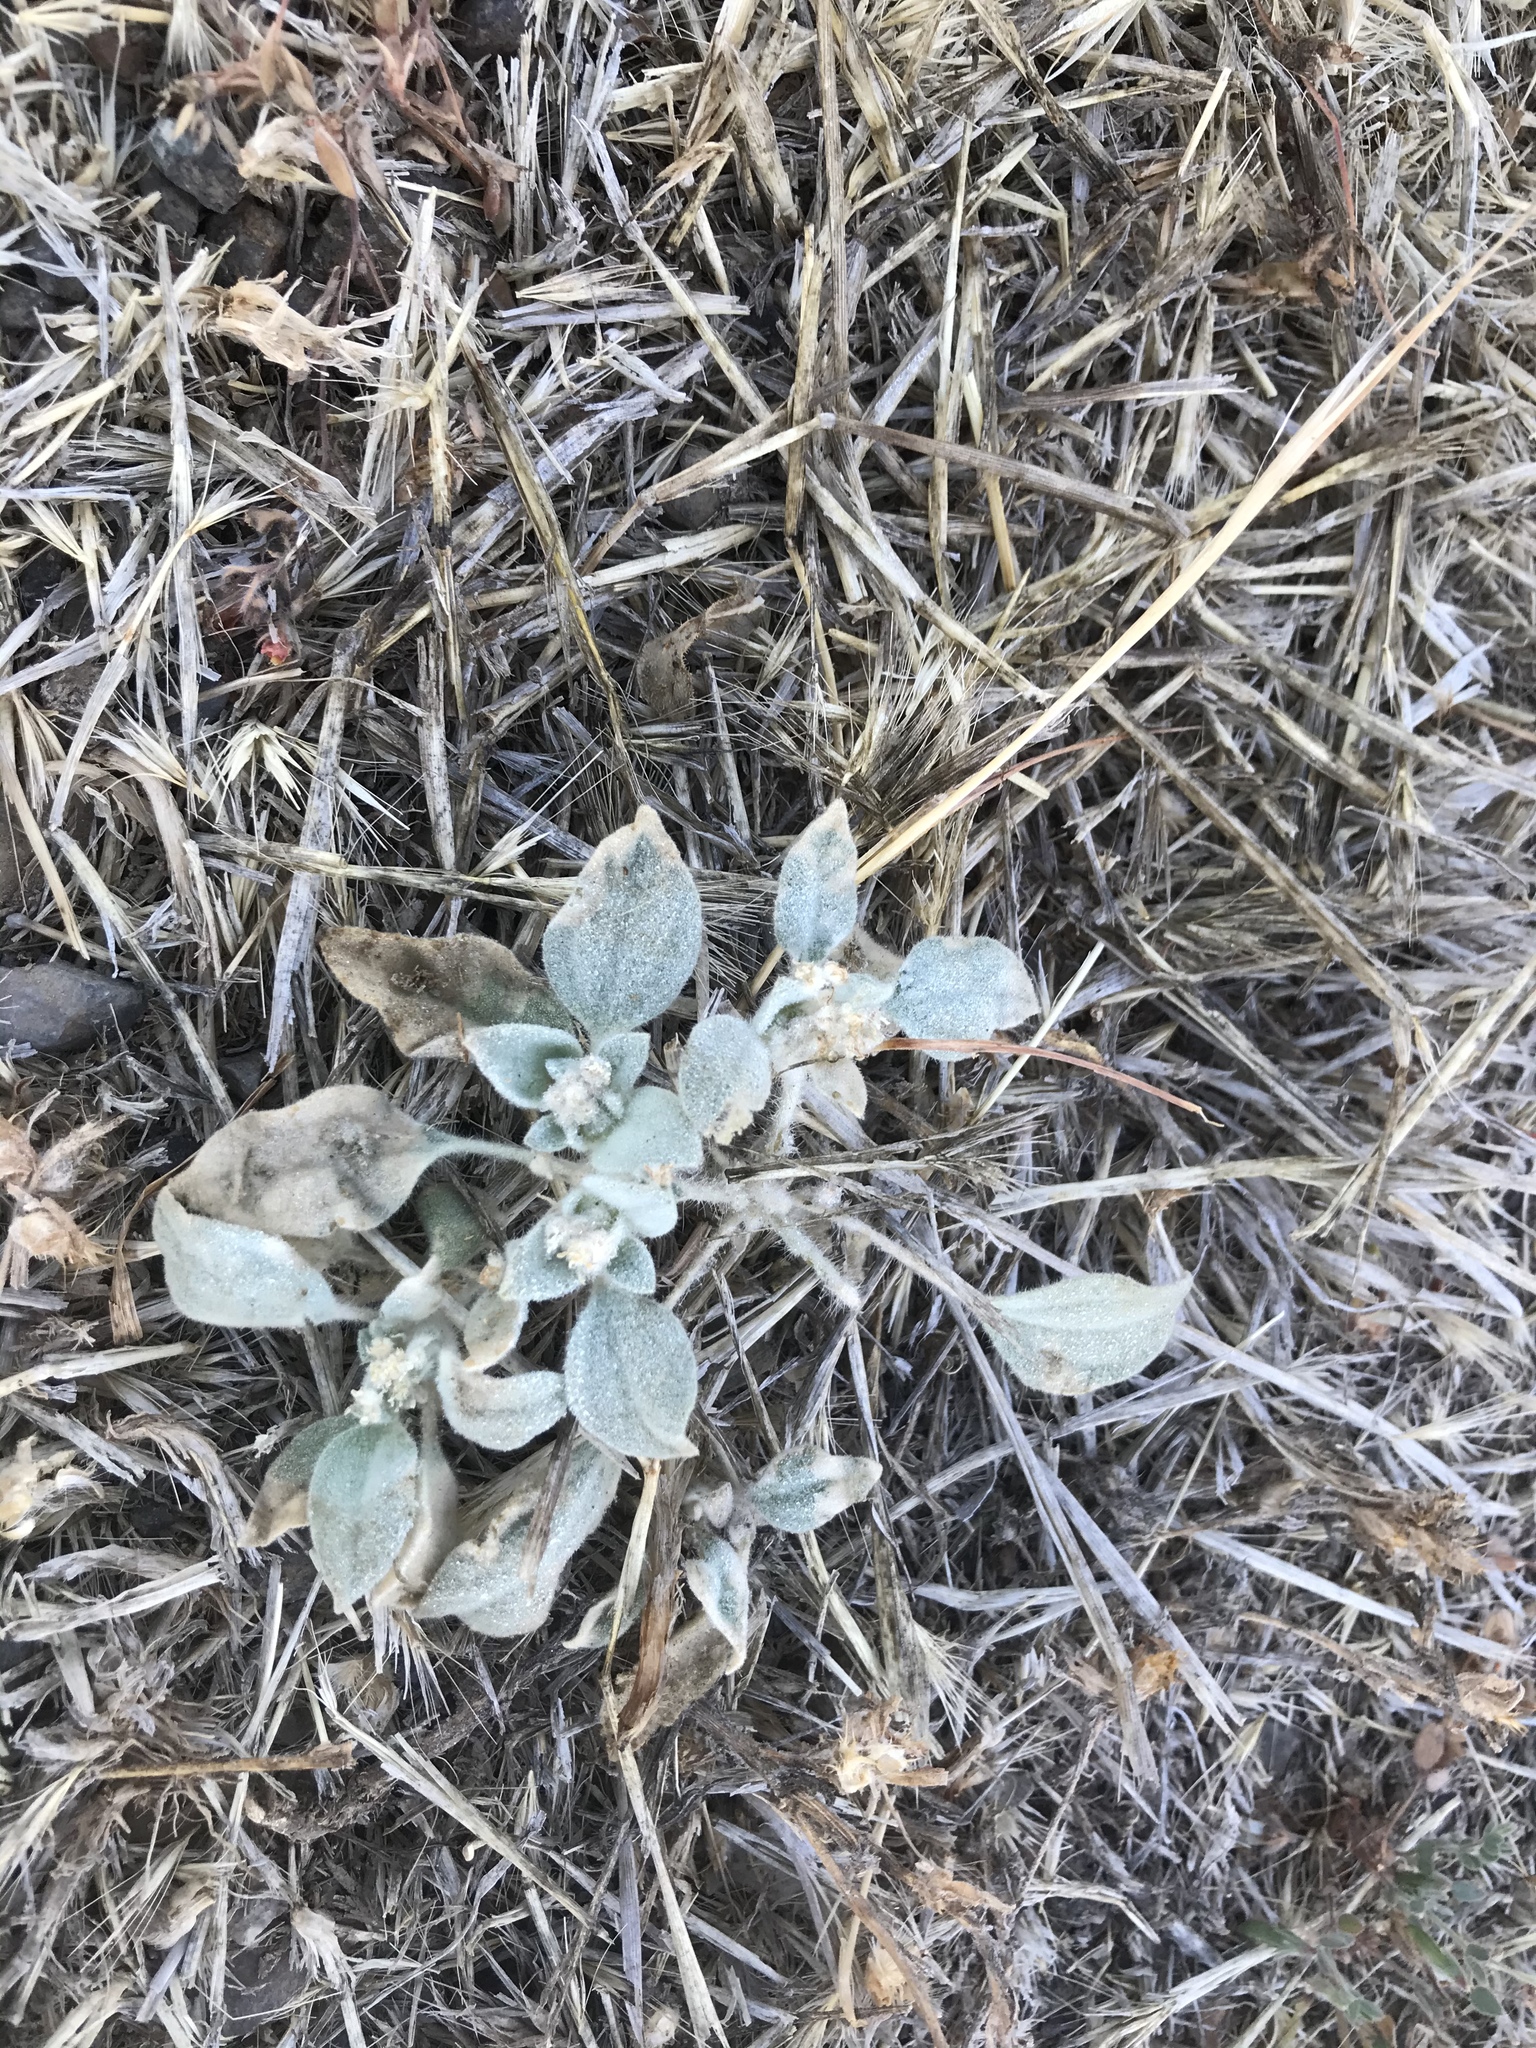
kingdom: Plantae
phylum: Tracheophyta
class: Magnoliopsida
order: Malpighiales
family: Euphorbiaceae
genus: Croton
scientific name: Croton setiger
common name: Dove weed
